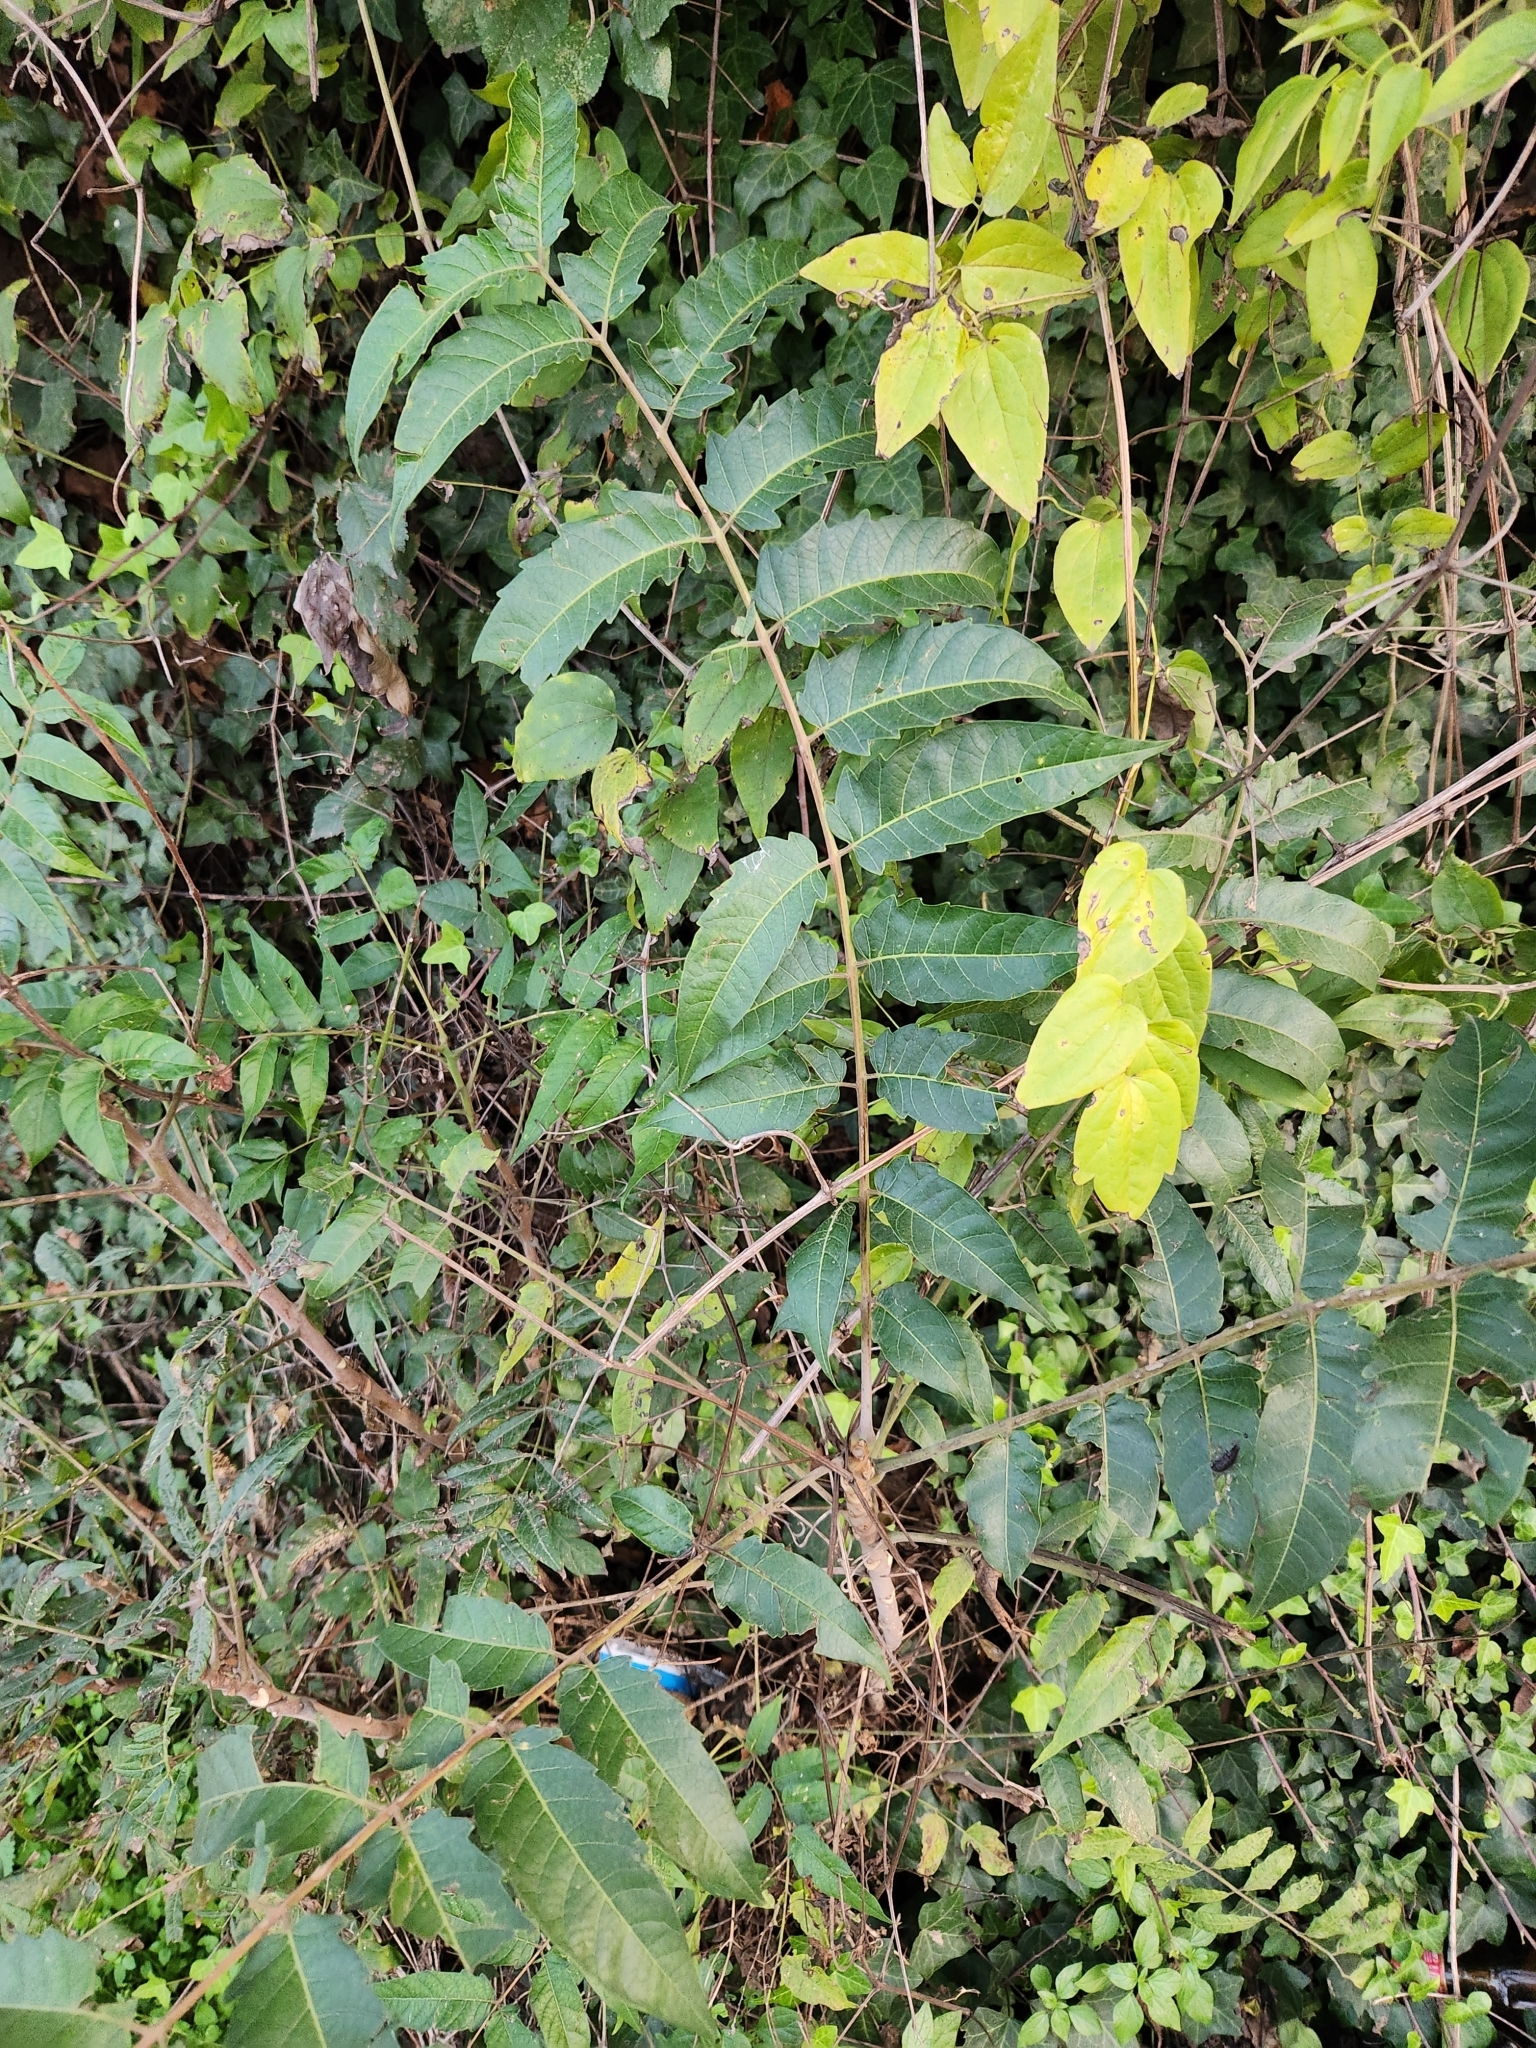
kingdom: Plantae
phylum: Tracheophyta
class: Magnoliopsida
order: Sapindales
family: Simaroubaceae
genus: Ailanthus
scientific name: Ailanthus altissima
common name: Tree-of-heaven
